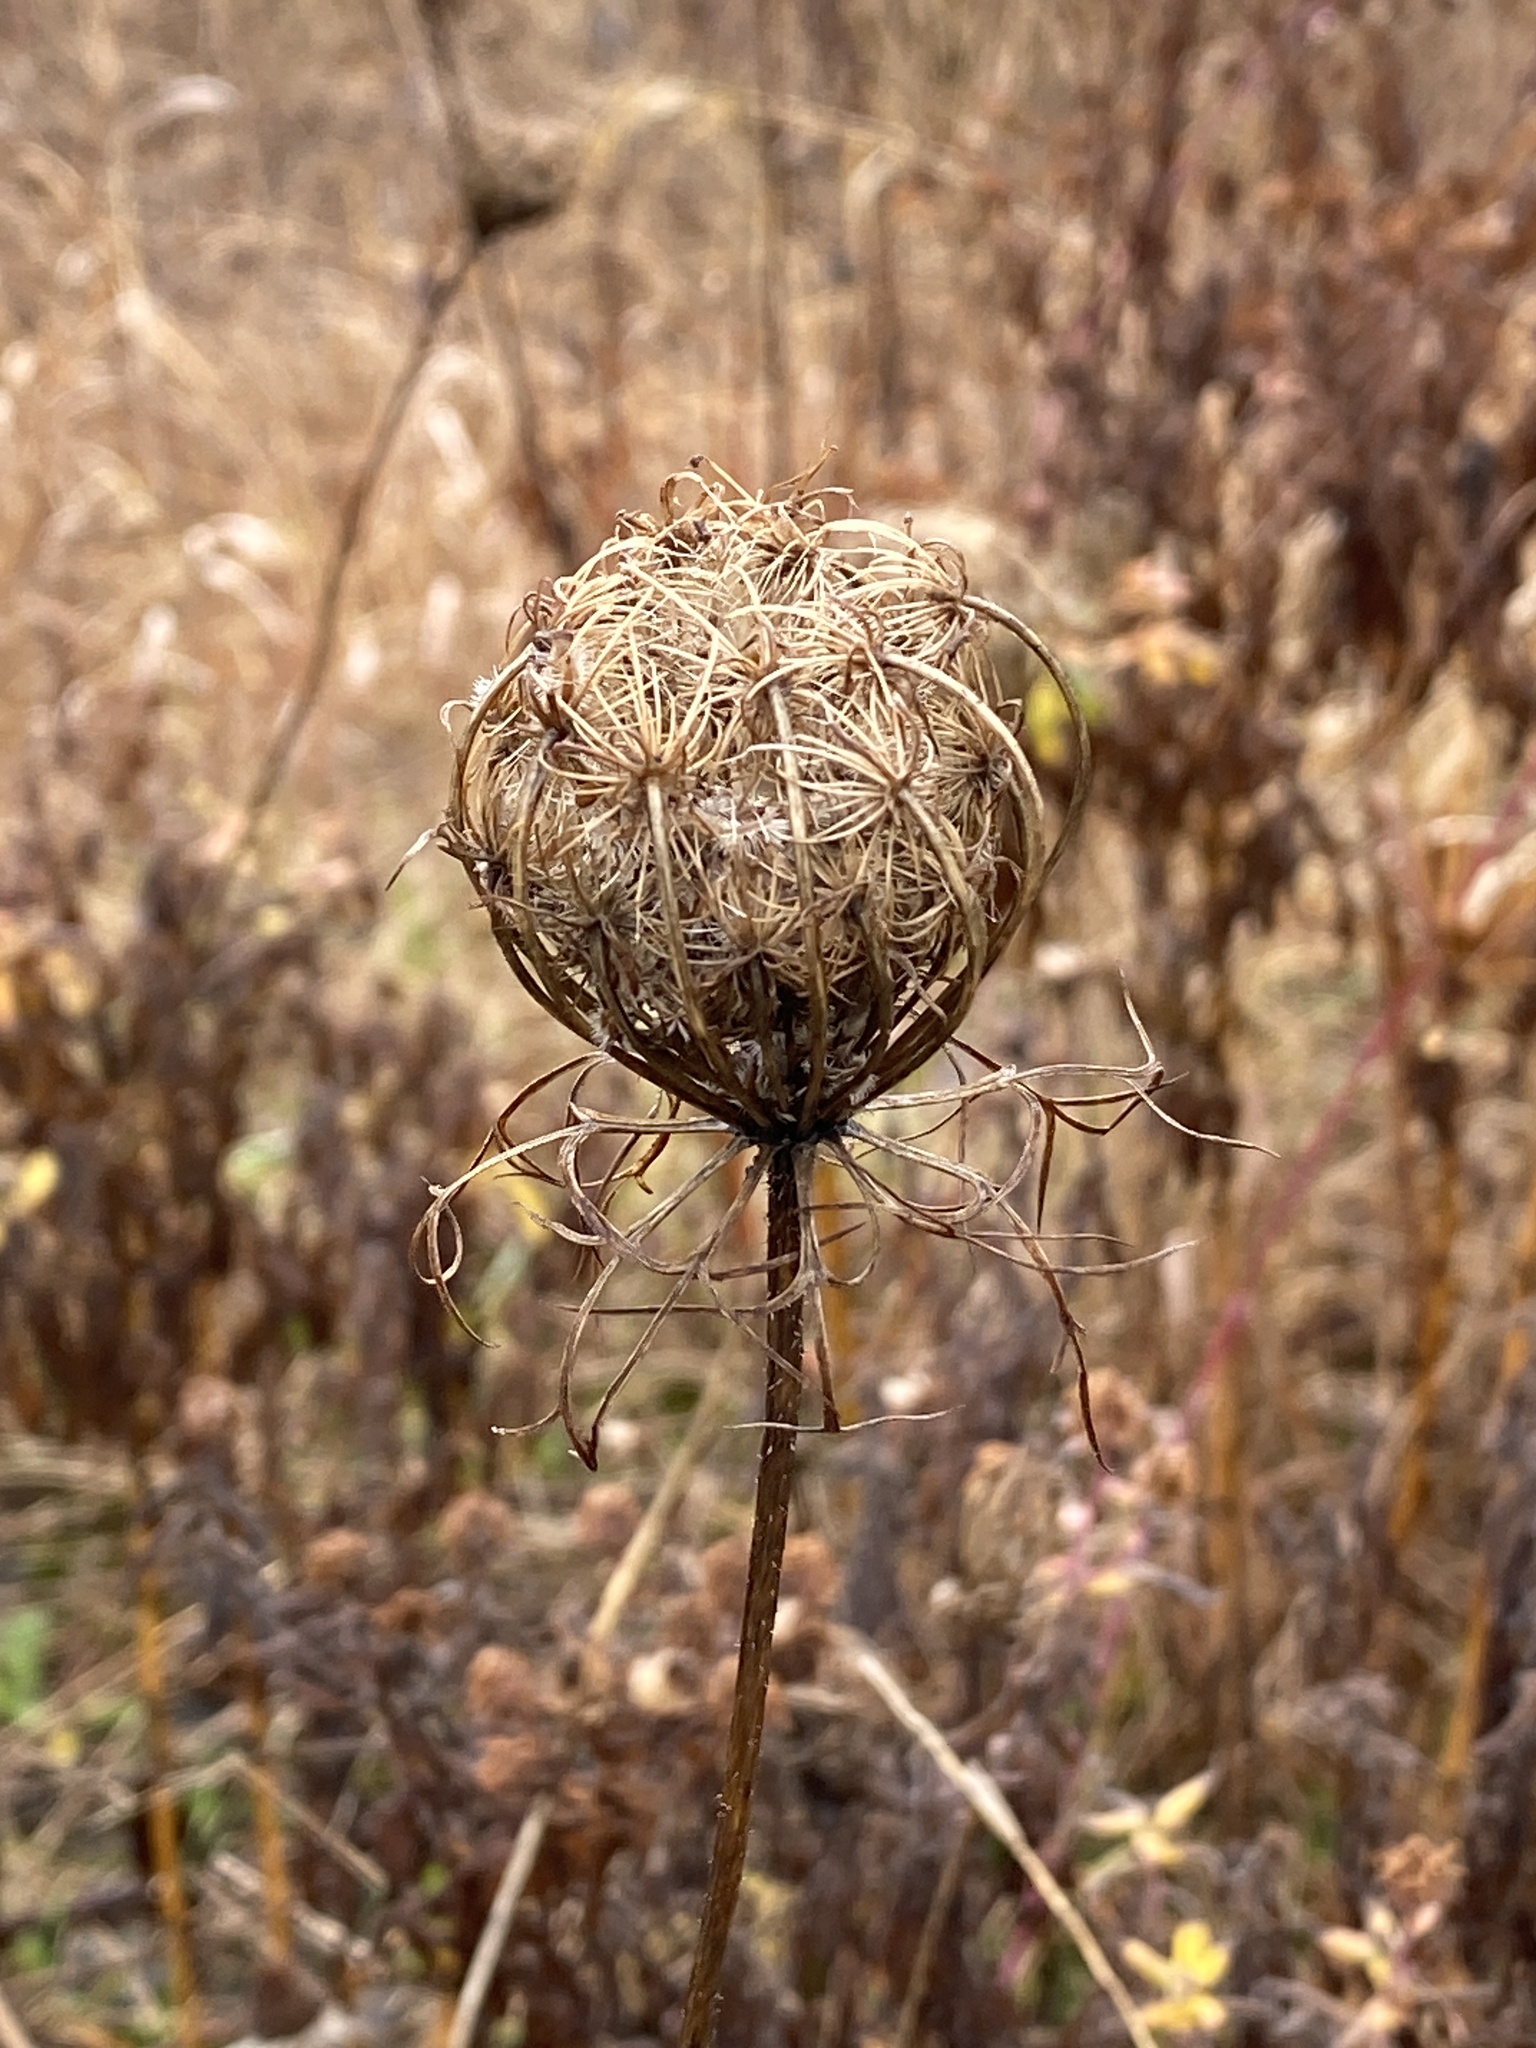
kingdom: Plantae
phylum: Tracheophyta
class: Magnoliopsida
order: Apiales
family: Apiaceae
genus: Daucus
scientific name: Daucus carota
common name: Wild carrot
